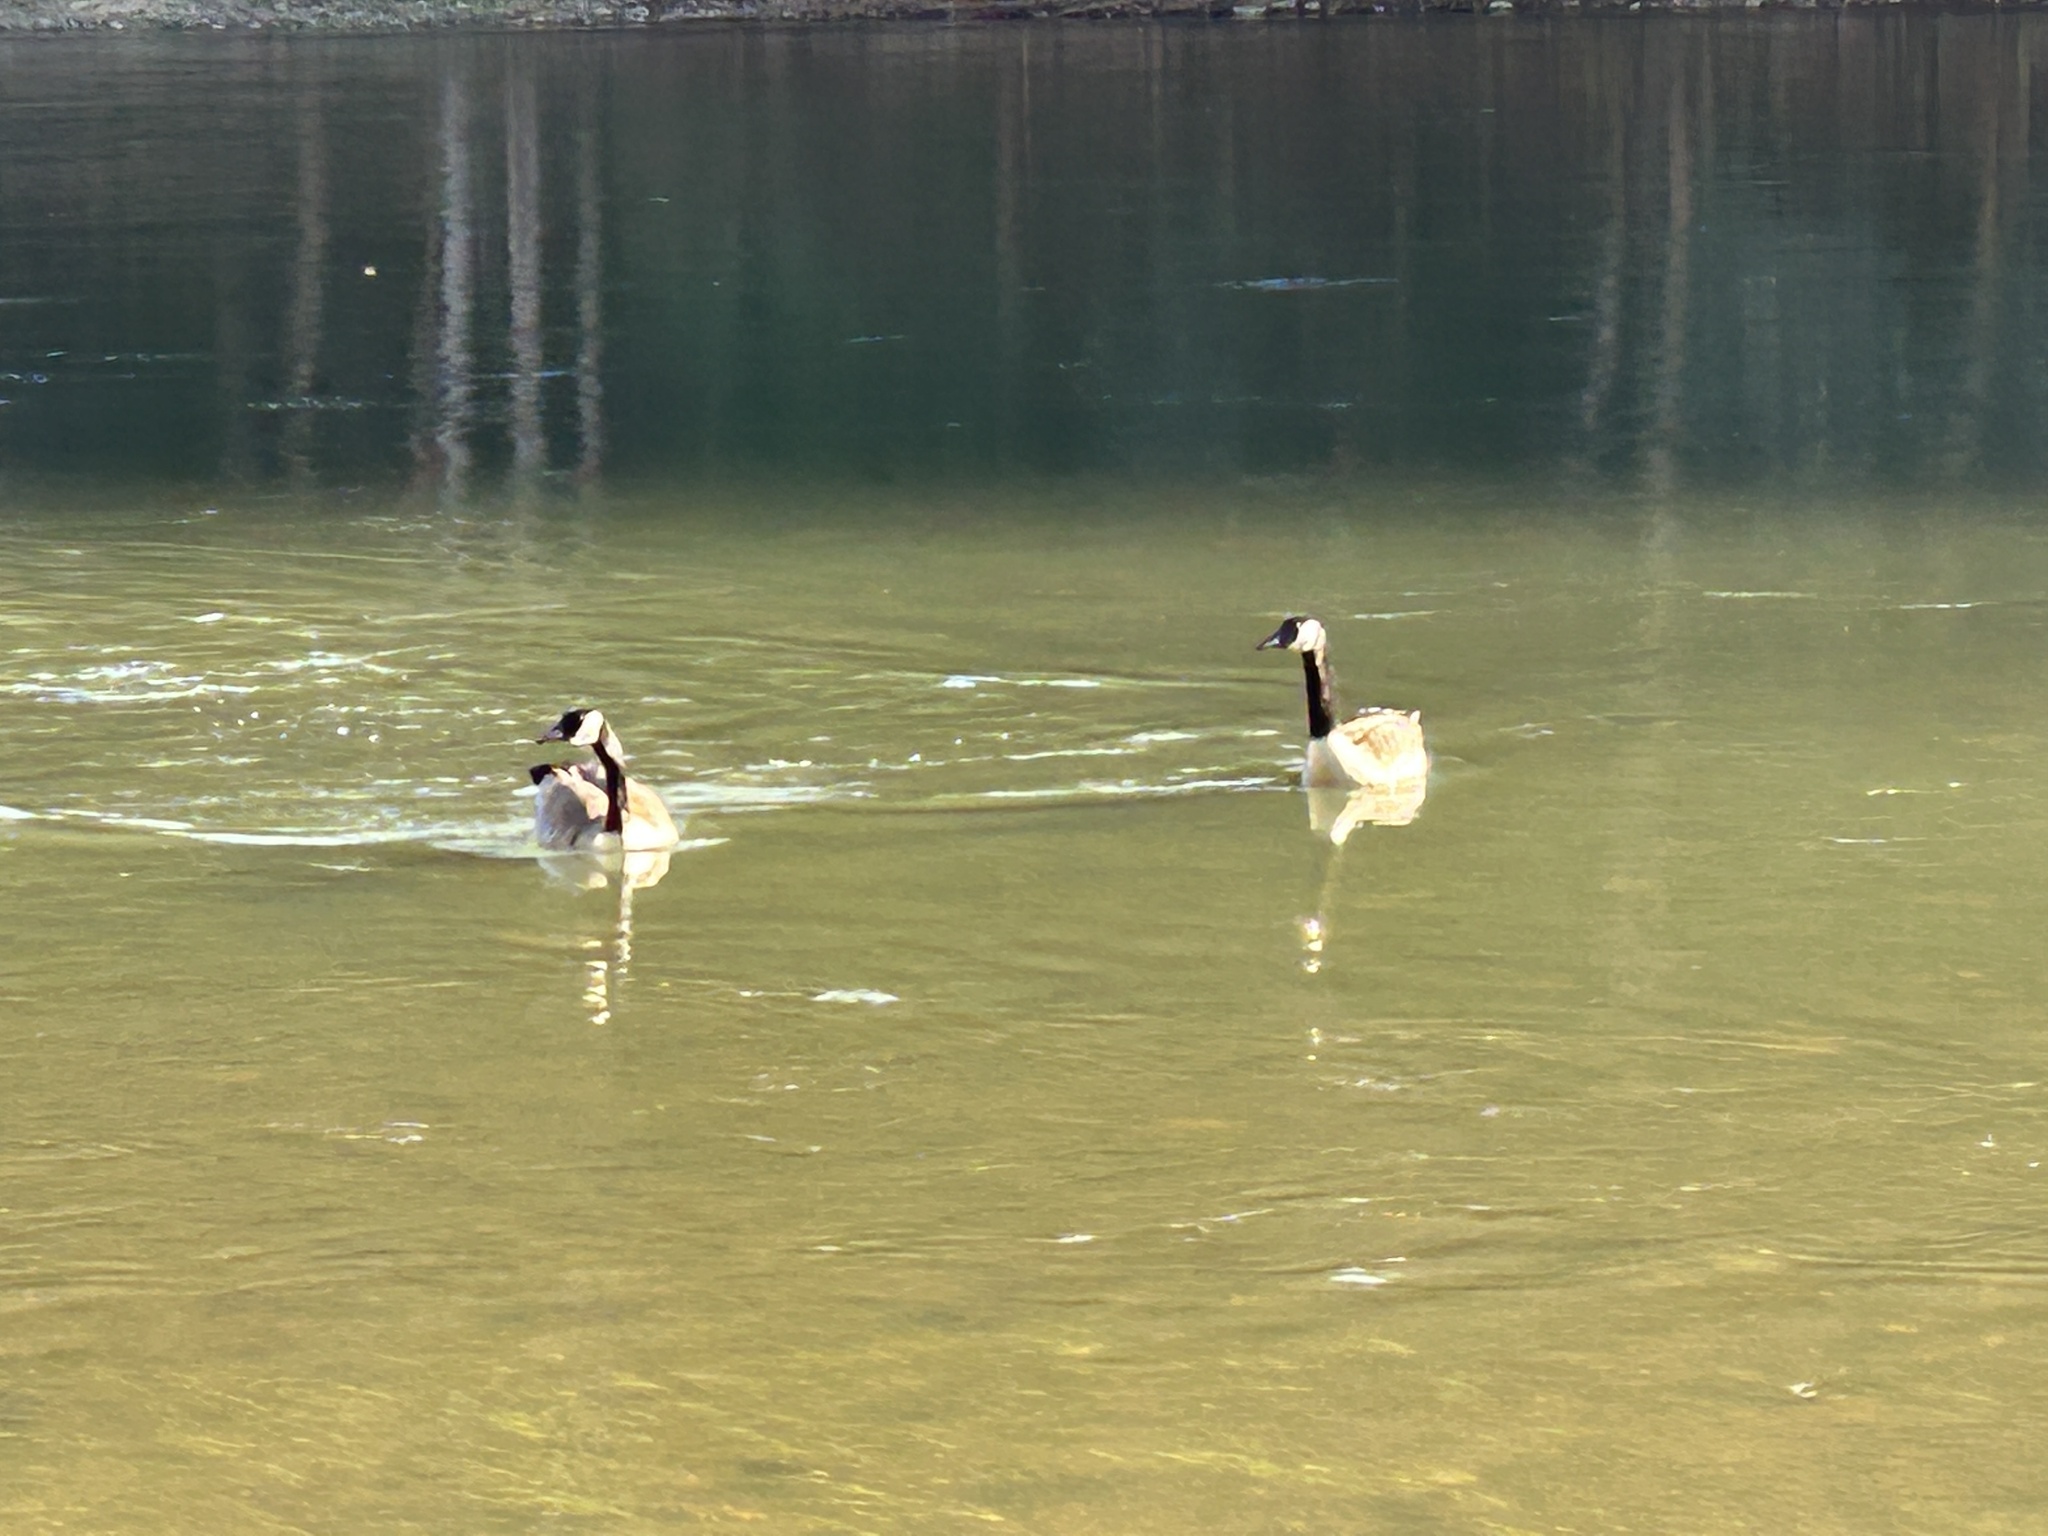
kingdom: Animalia
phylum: Chordata
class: Aves
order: Anseriformes
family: Anatidae
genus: Branta
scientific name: Branta canadensis
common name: Canada goose
